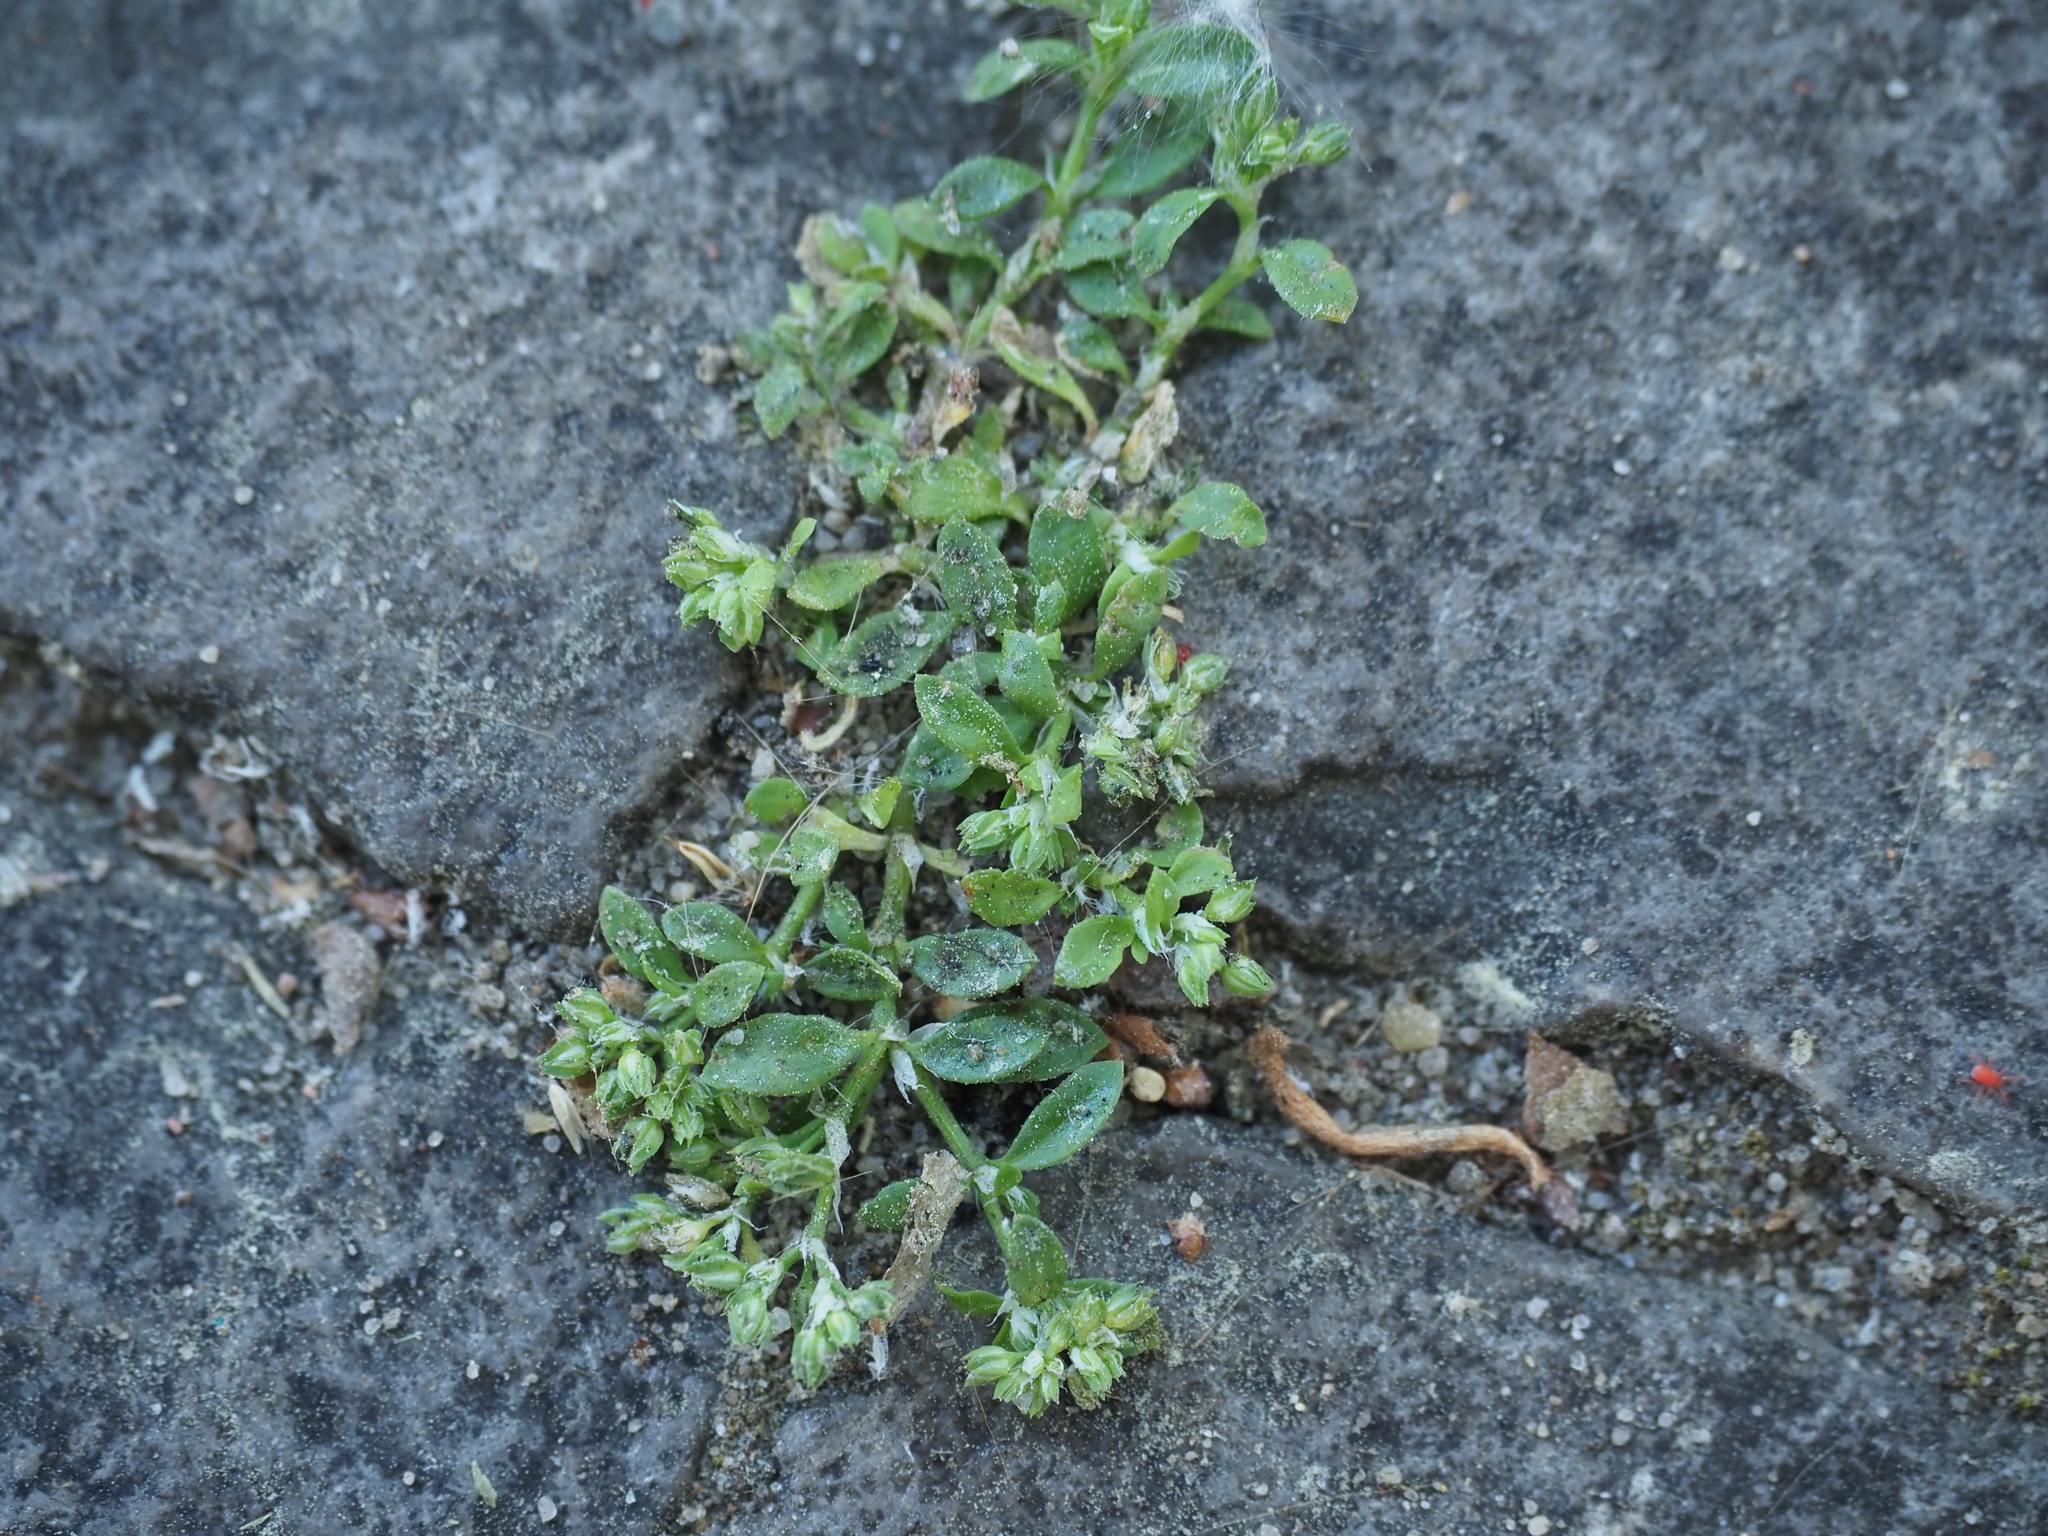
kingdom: Plantae
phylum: Tracheophyta
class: Magnoliopsida
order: Caryophyllales
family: Caryophyllaceae
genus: Polycarpon
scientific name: Polycarpon tetraphyllum
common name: Four-leaved all-seed
